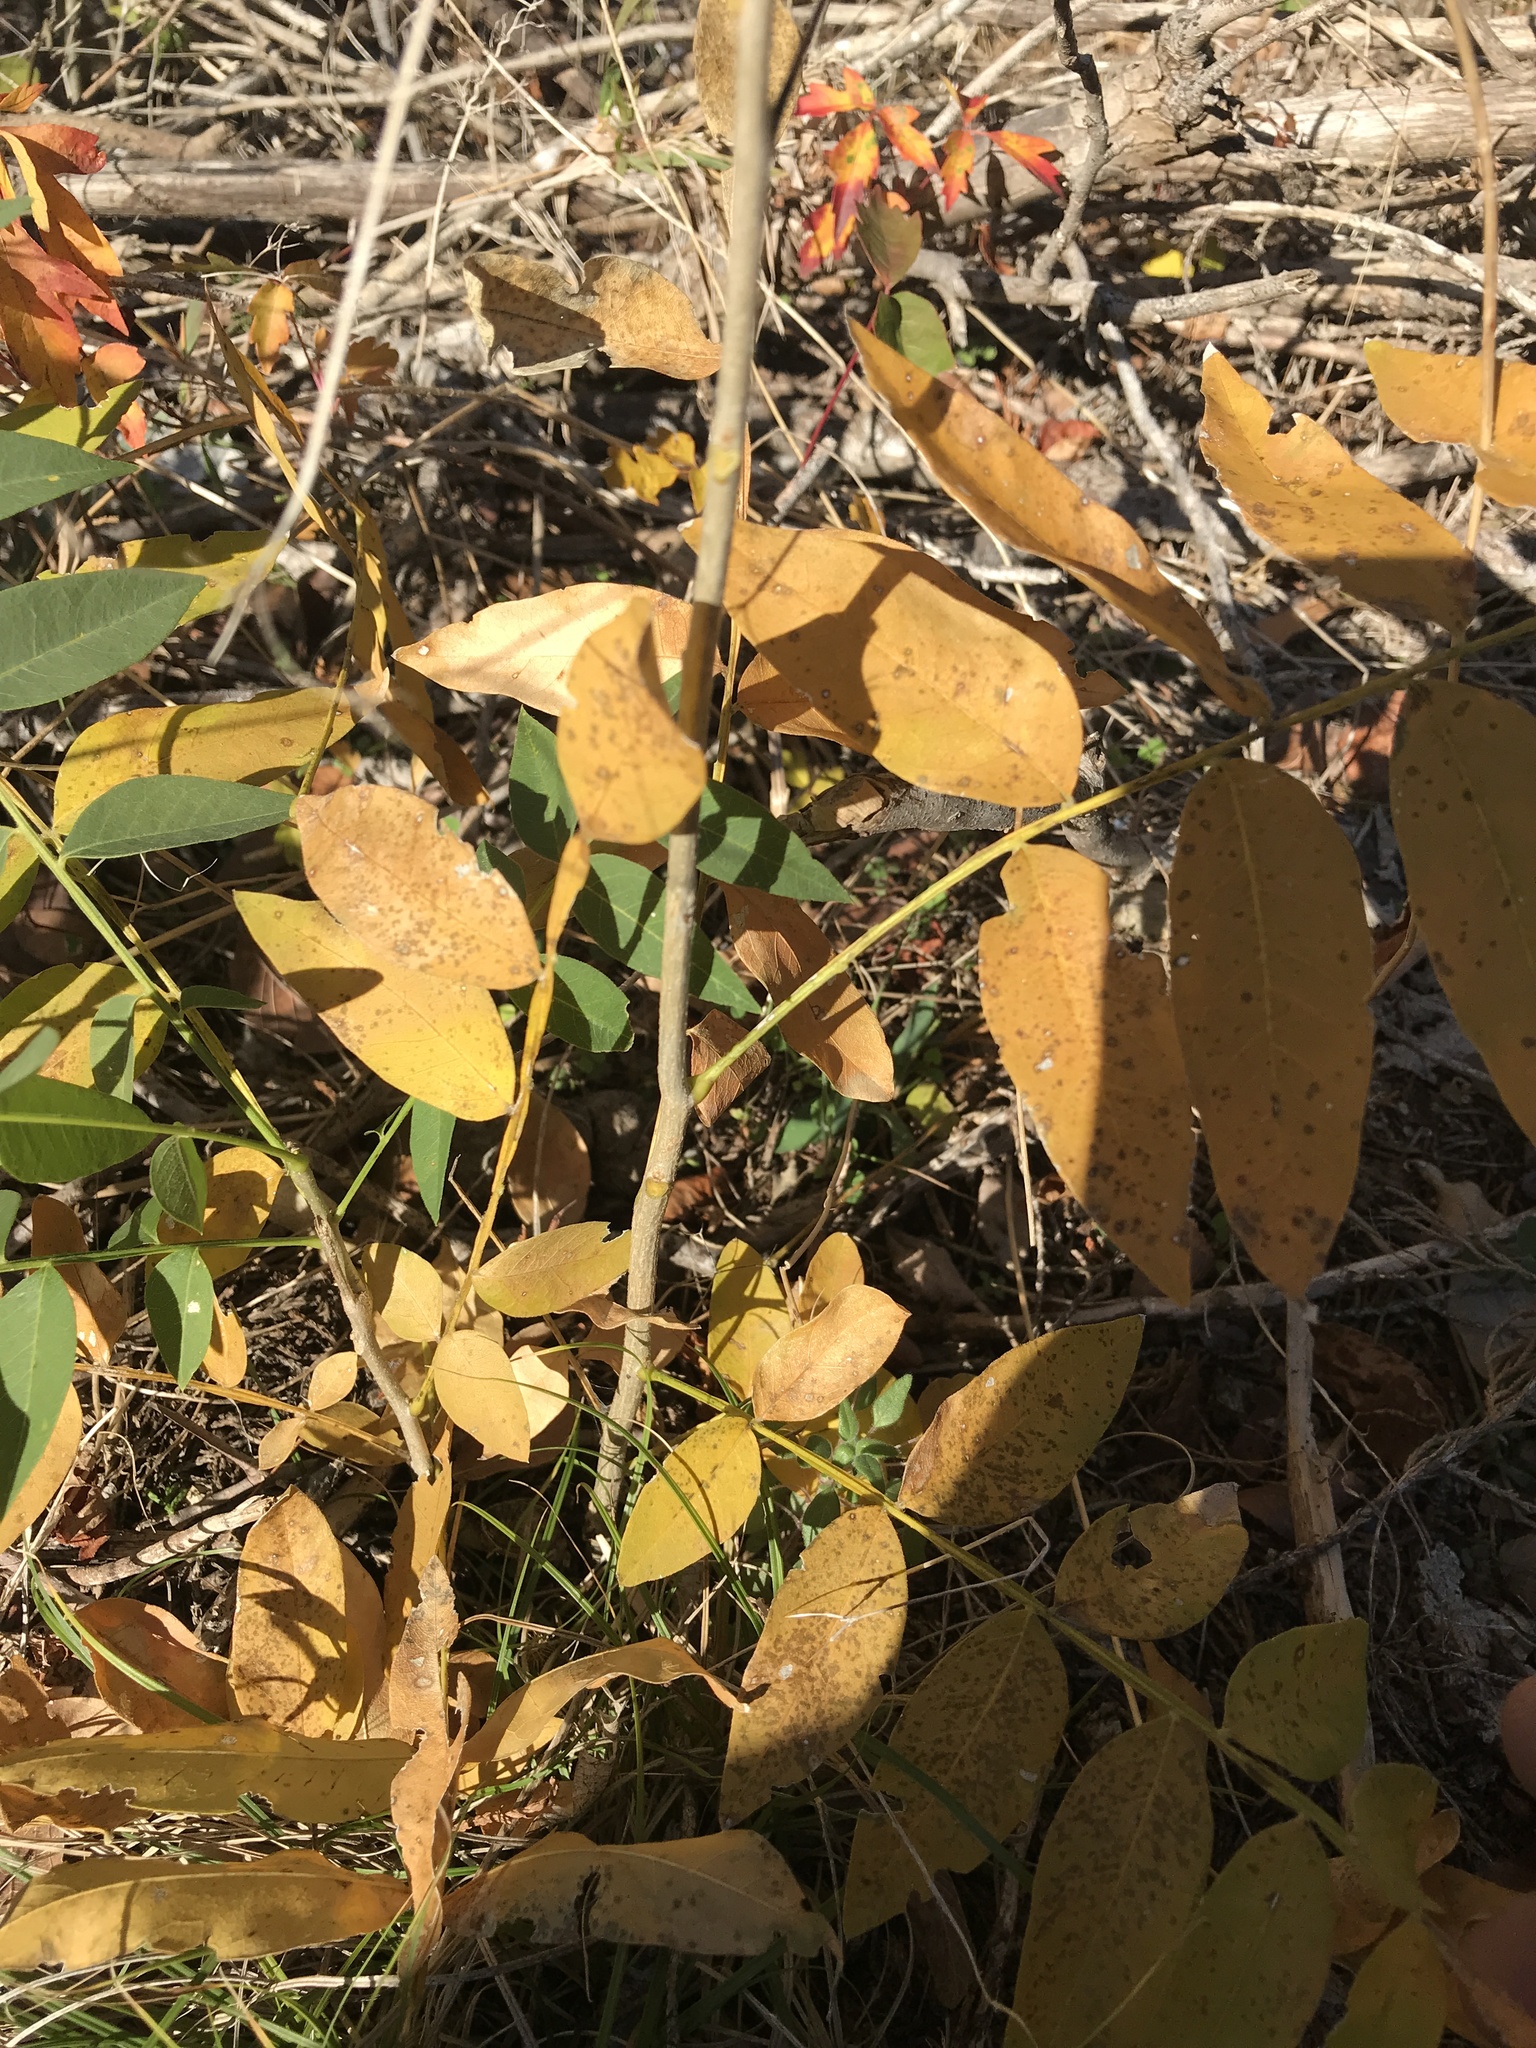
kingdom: Plantae
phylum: Tracheophyta
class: Magnoliopsida
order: Sapindales
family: Sapindaceae
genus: Sapindus
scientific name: Sapindus drummondii
